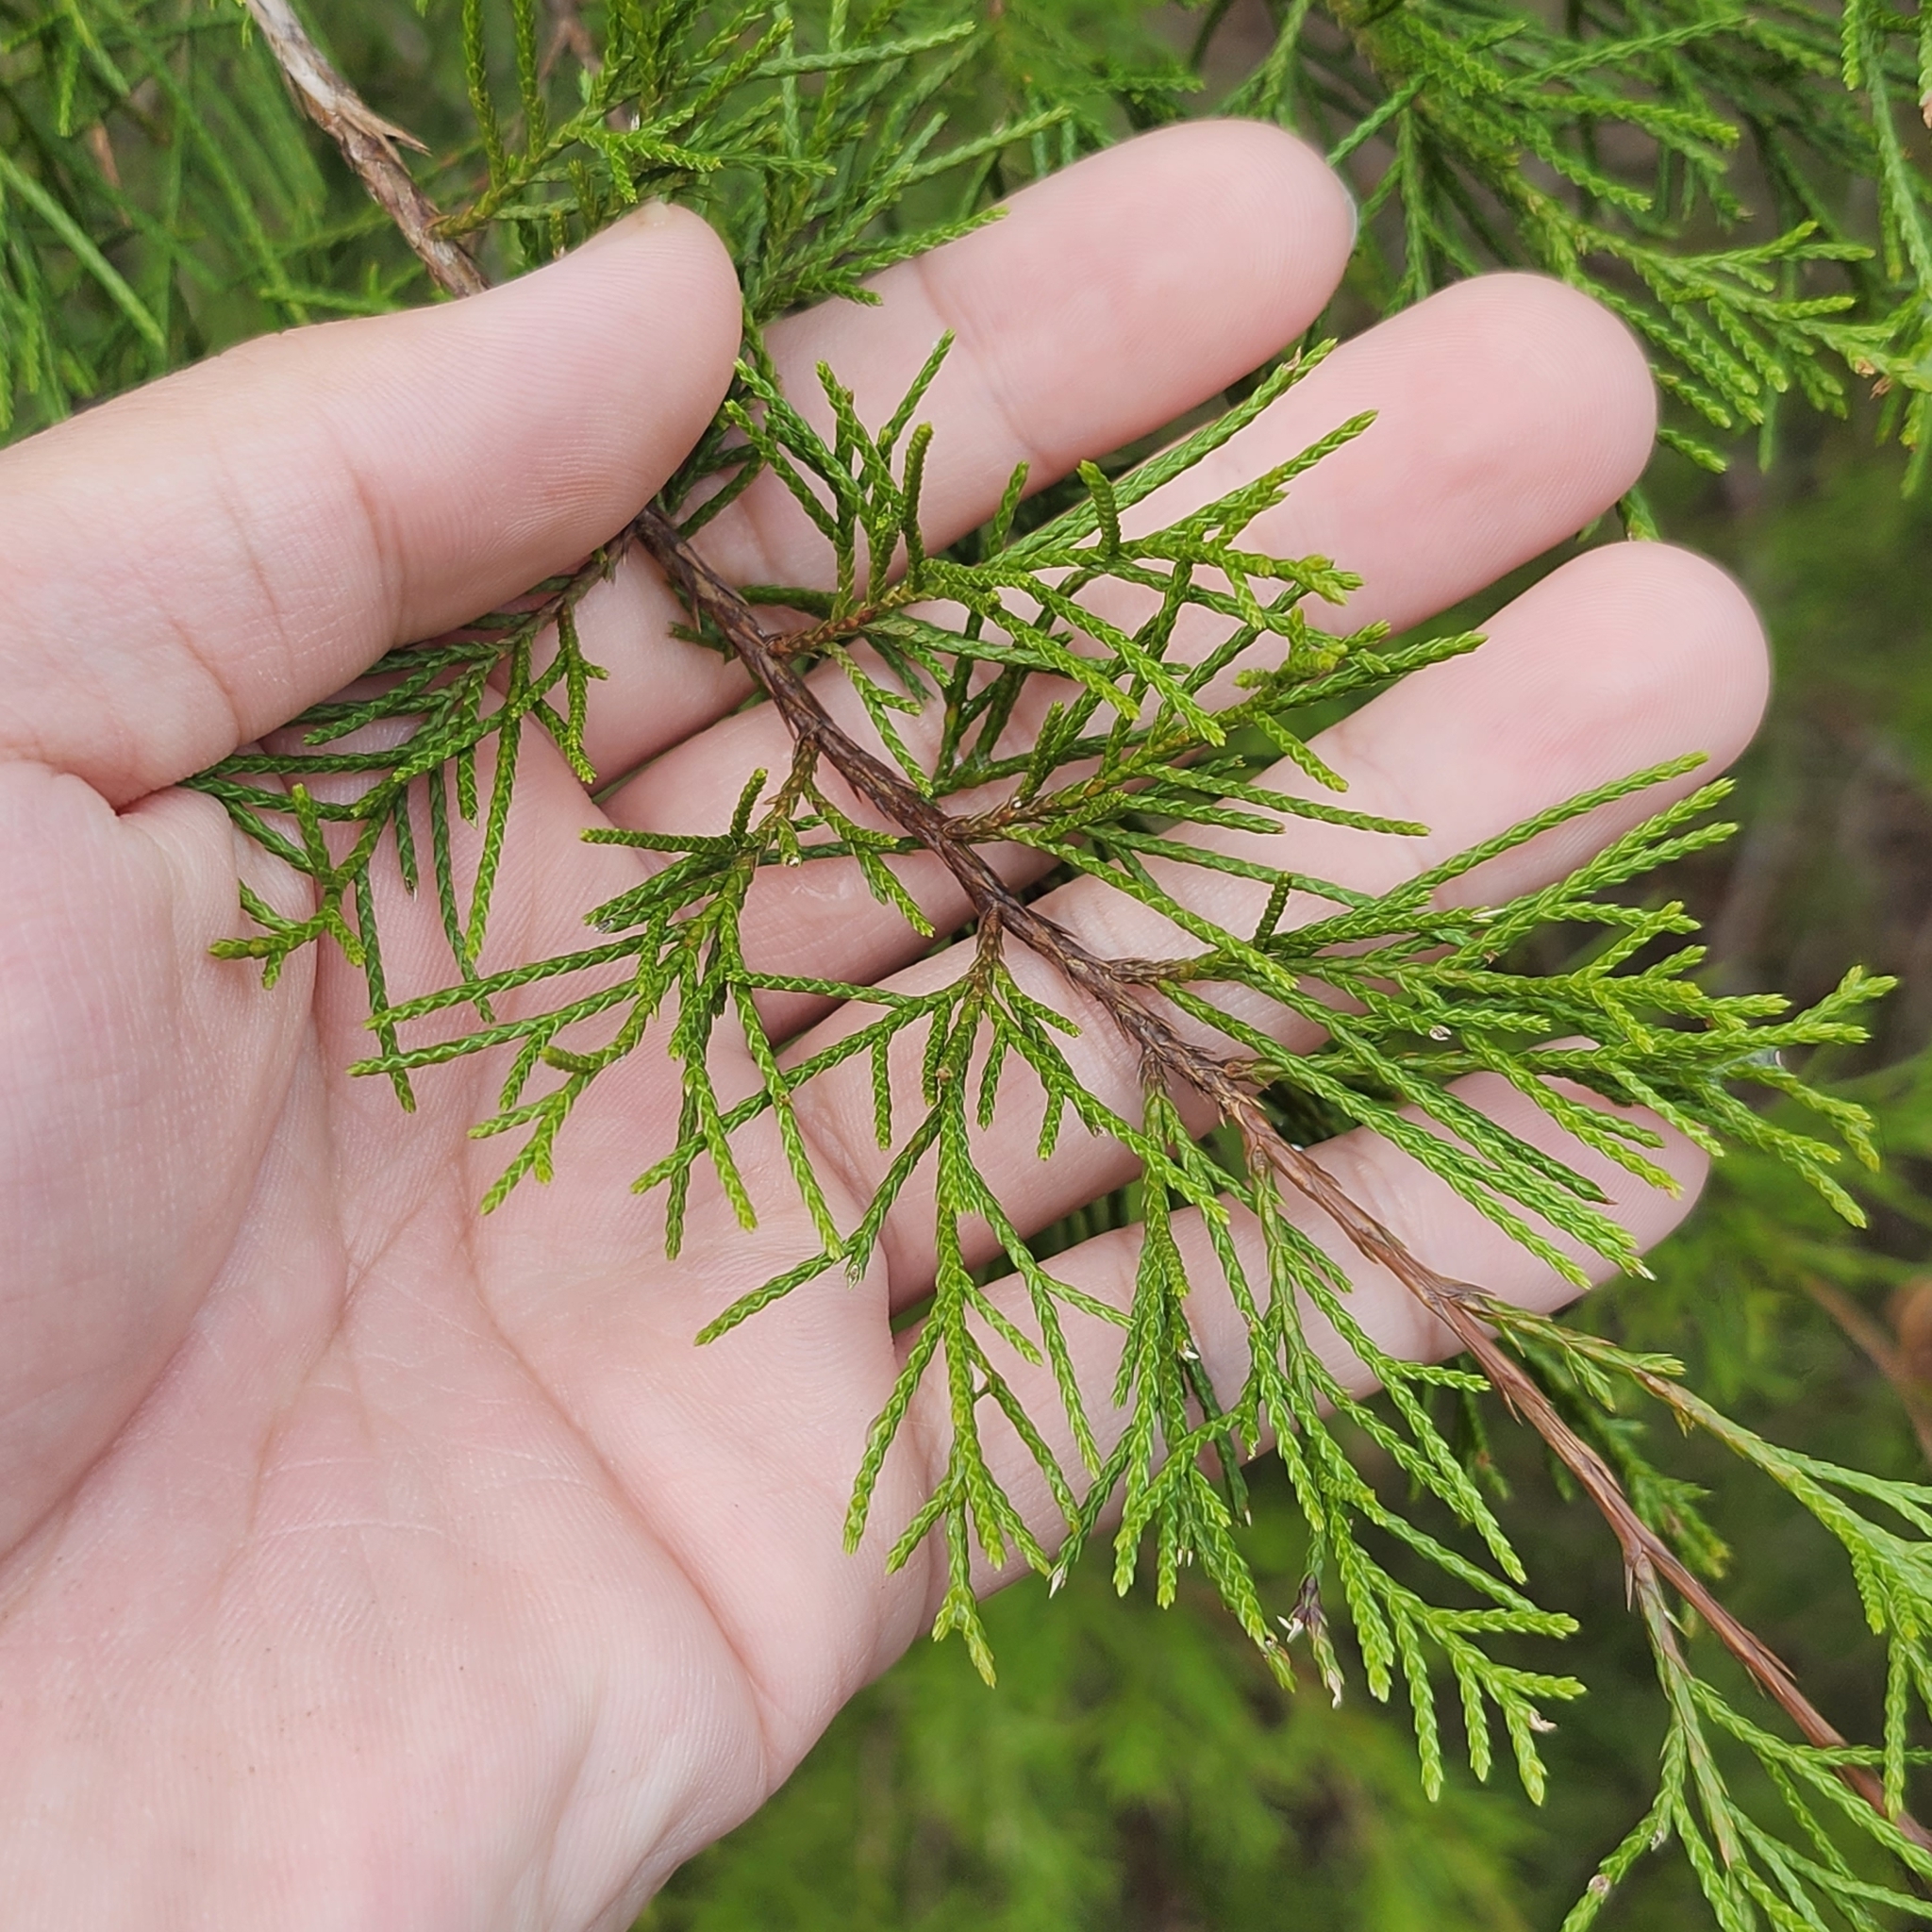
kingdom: Plantae
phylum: Tracheophyta
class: Pinopsida
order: Pinales
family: Cupressaceae
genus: Juniperus
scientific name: Juniperus virginiana
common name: Red juniper
